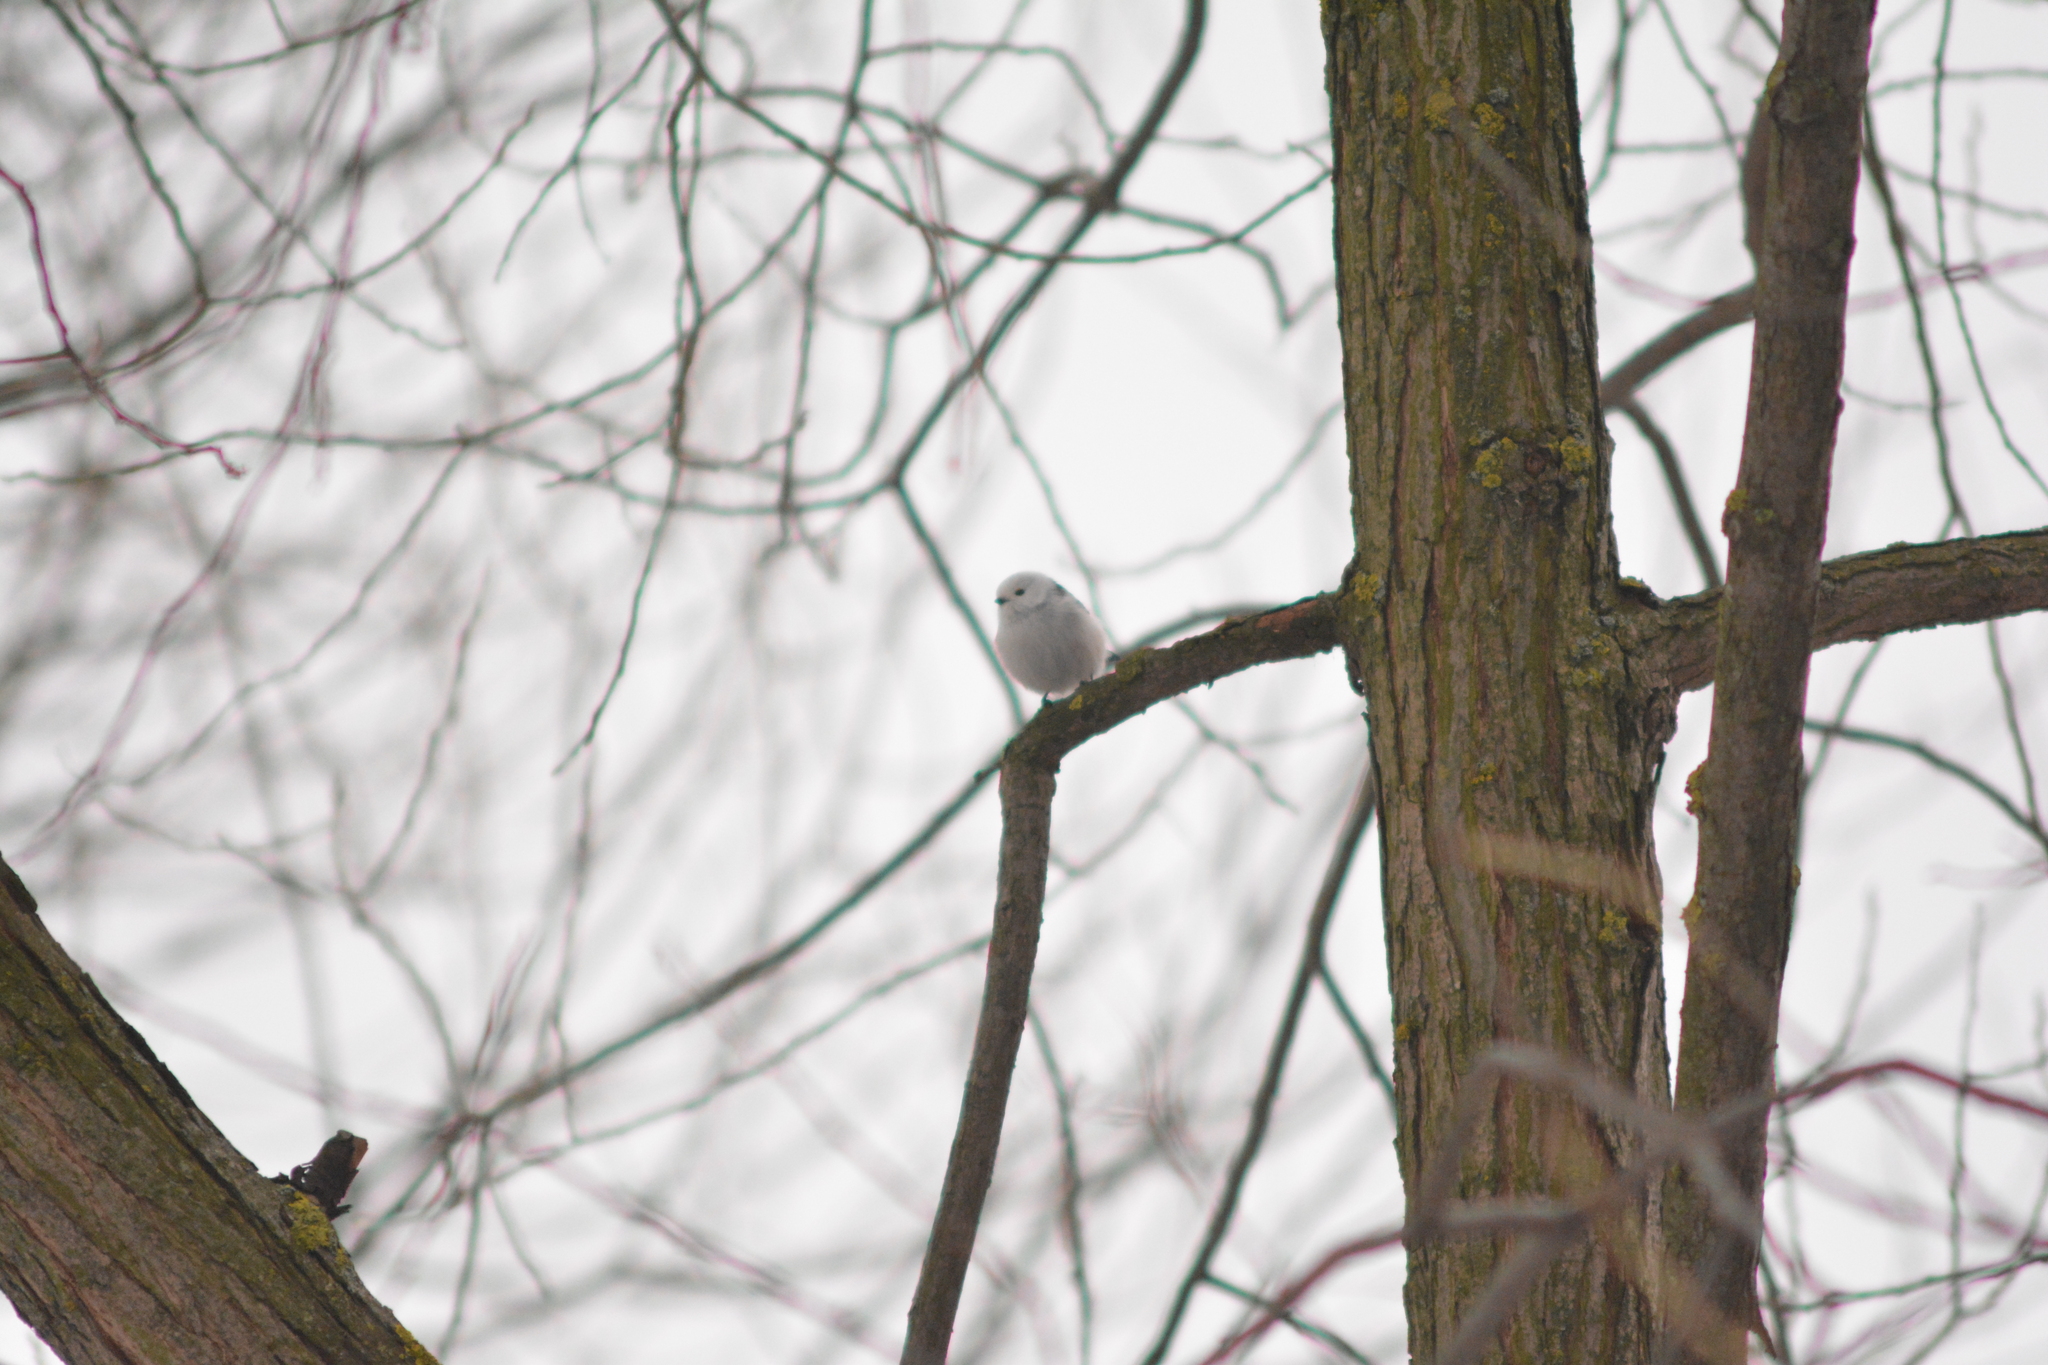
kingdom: Animalia
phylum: Chordata
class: Aves
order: Passeriformes
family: Aegithalidae
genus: Aegithalos
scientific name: Aegithalos caudatus
